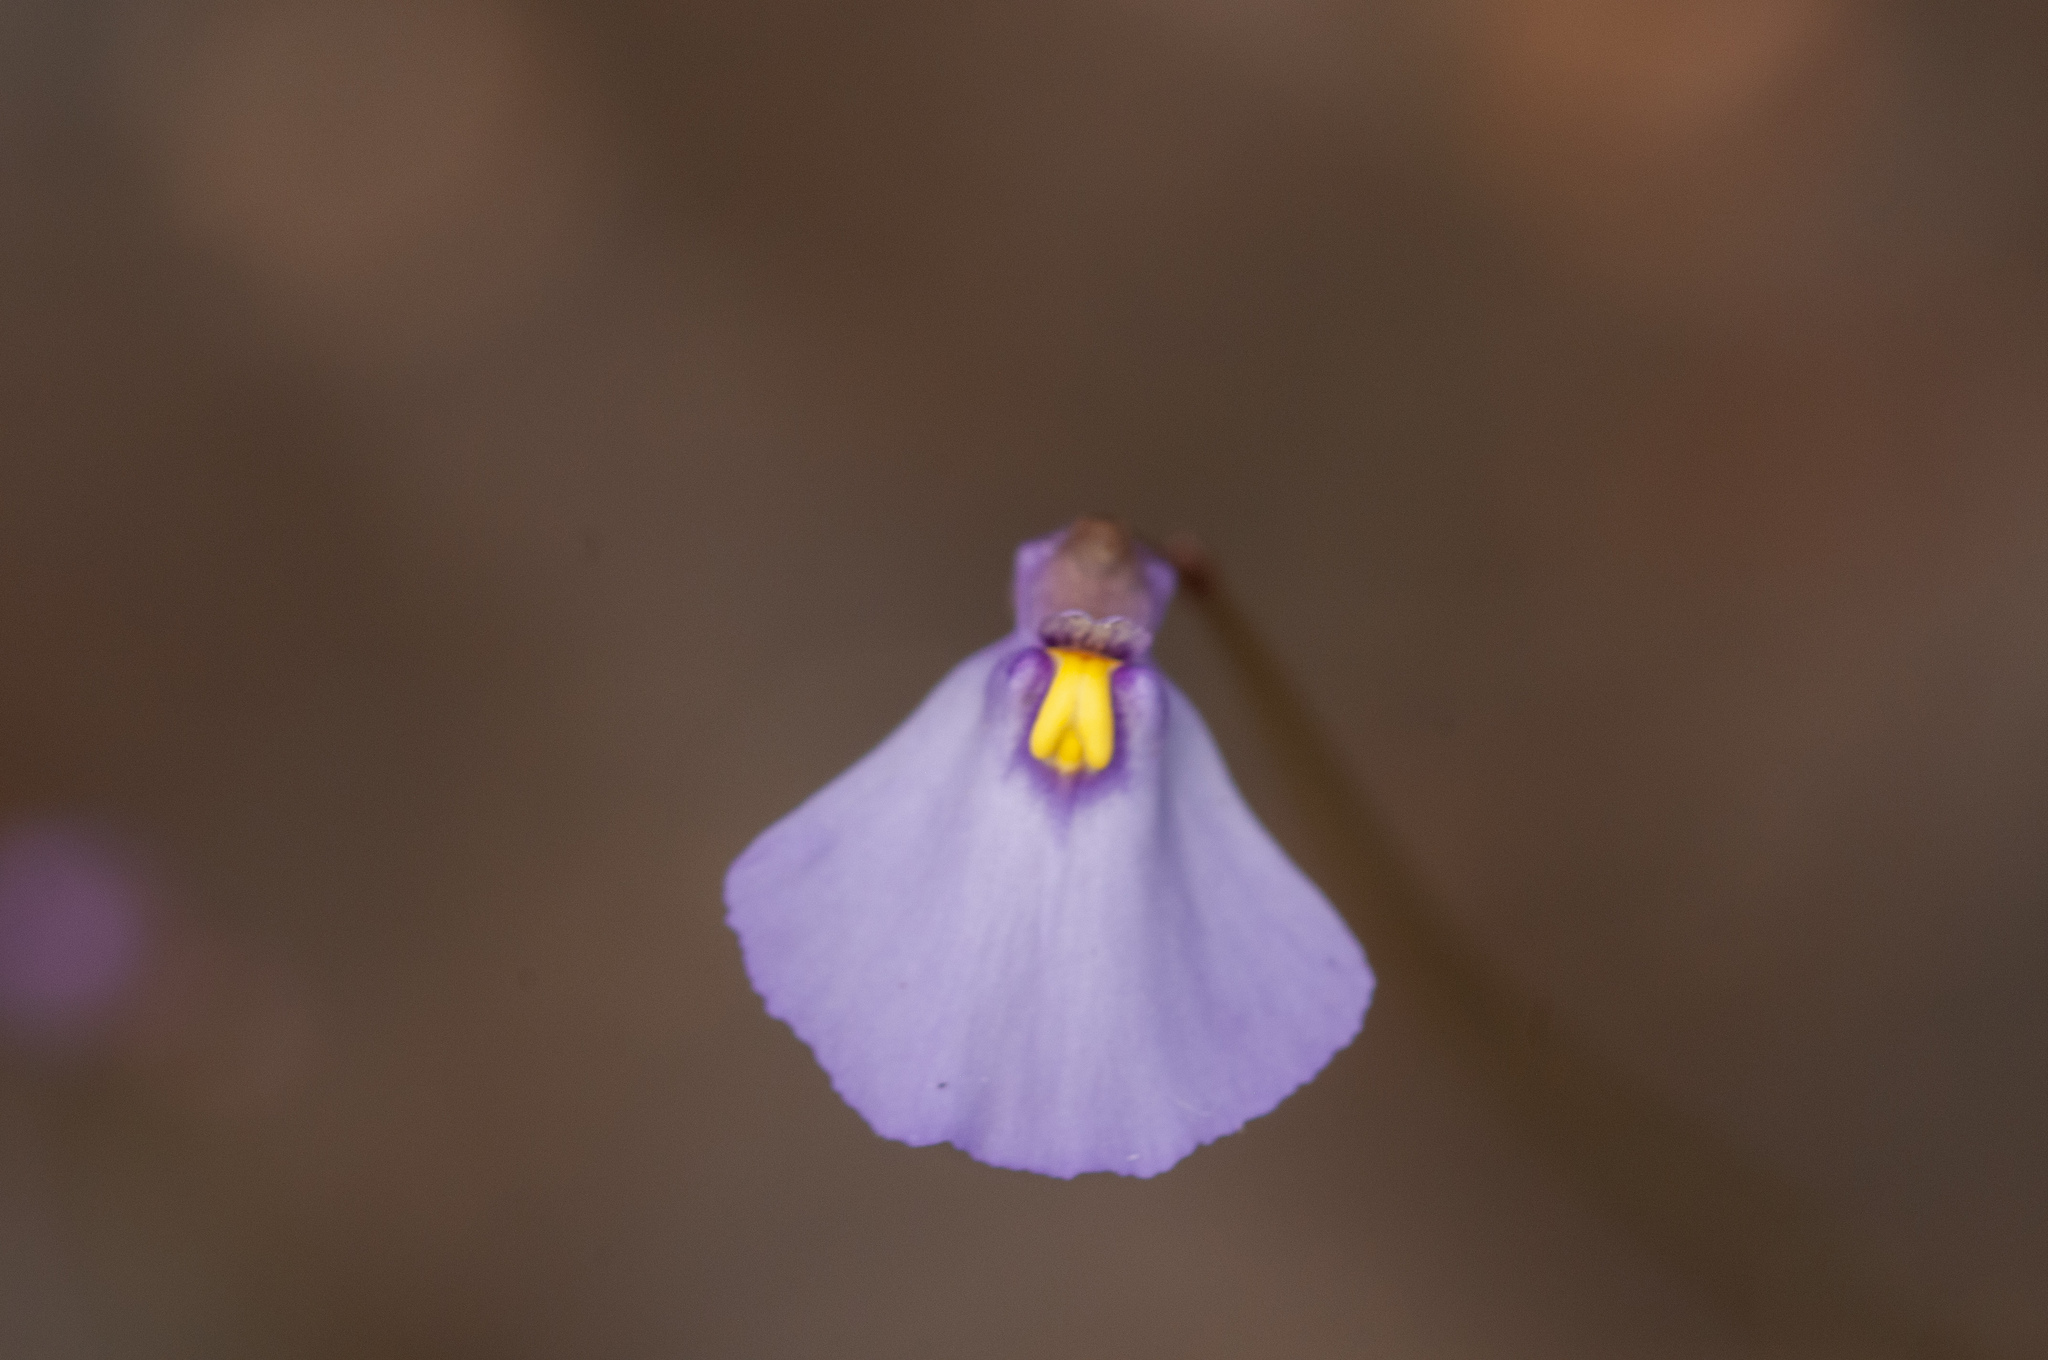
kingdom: Plantae
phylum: Tracheophyta
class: Magnoliopsida
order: Lamiales
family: Lentibulariaceae
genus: Utricularia
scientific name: Utricularia barkeri
